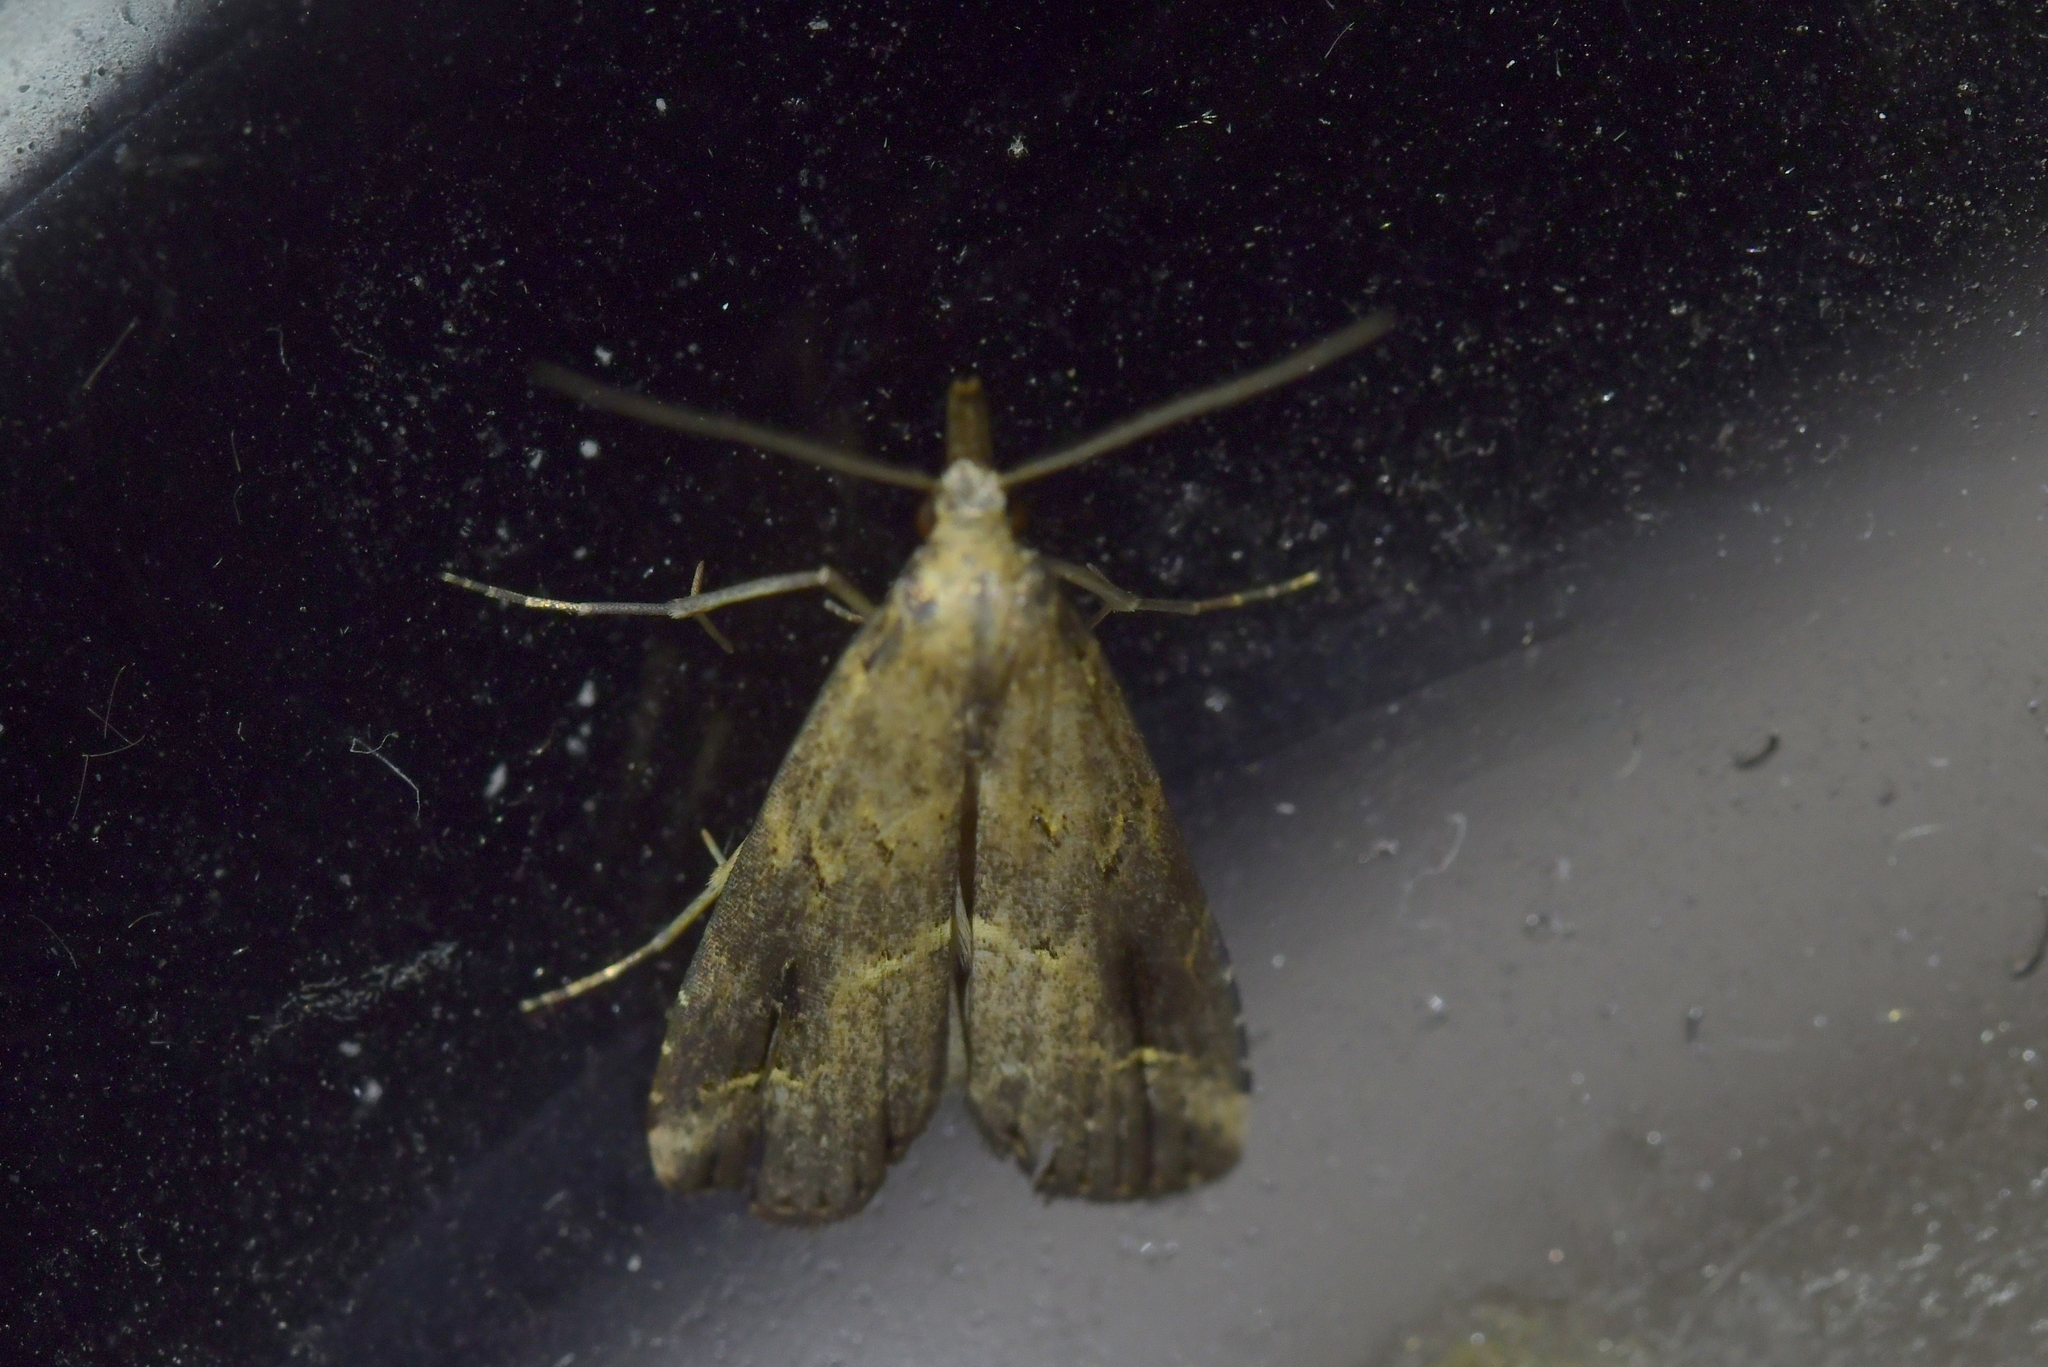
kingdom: Animalia
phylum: Arthropoda
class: Insecta
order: Lepidoptera
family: Erebidae
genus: Schrankia
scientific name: Schrankia costaestrigalis
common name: Pinion-streaked snout
